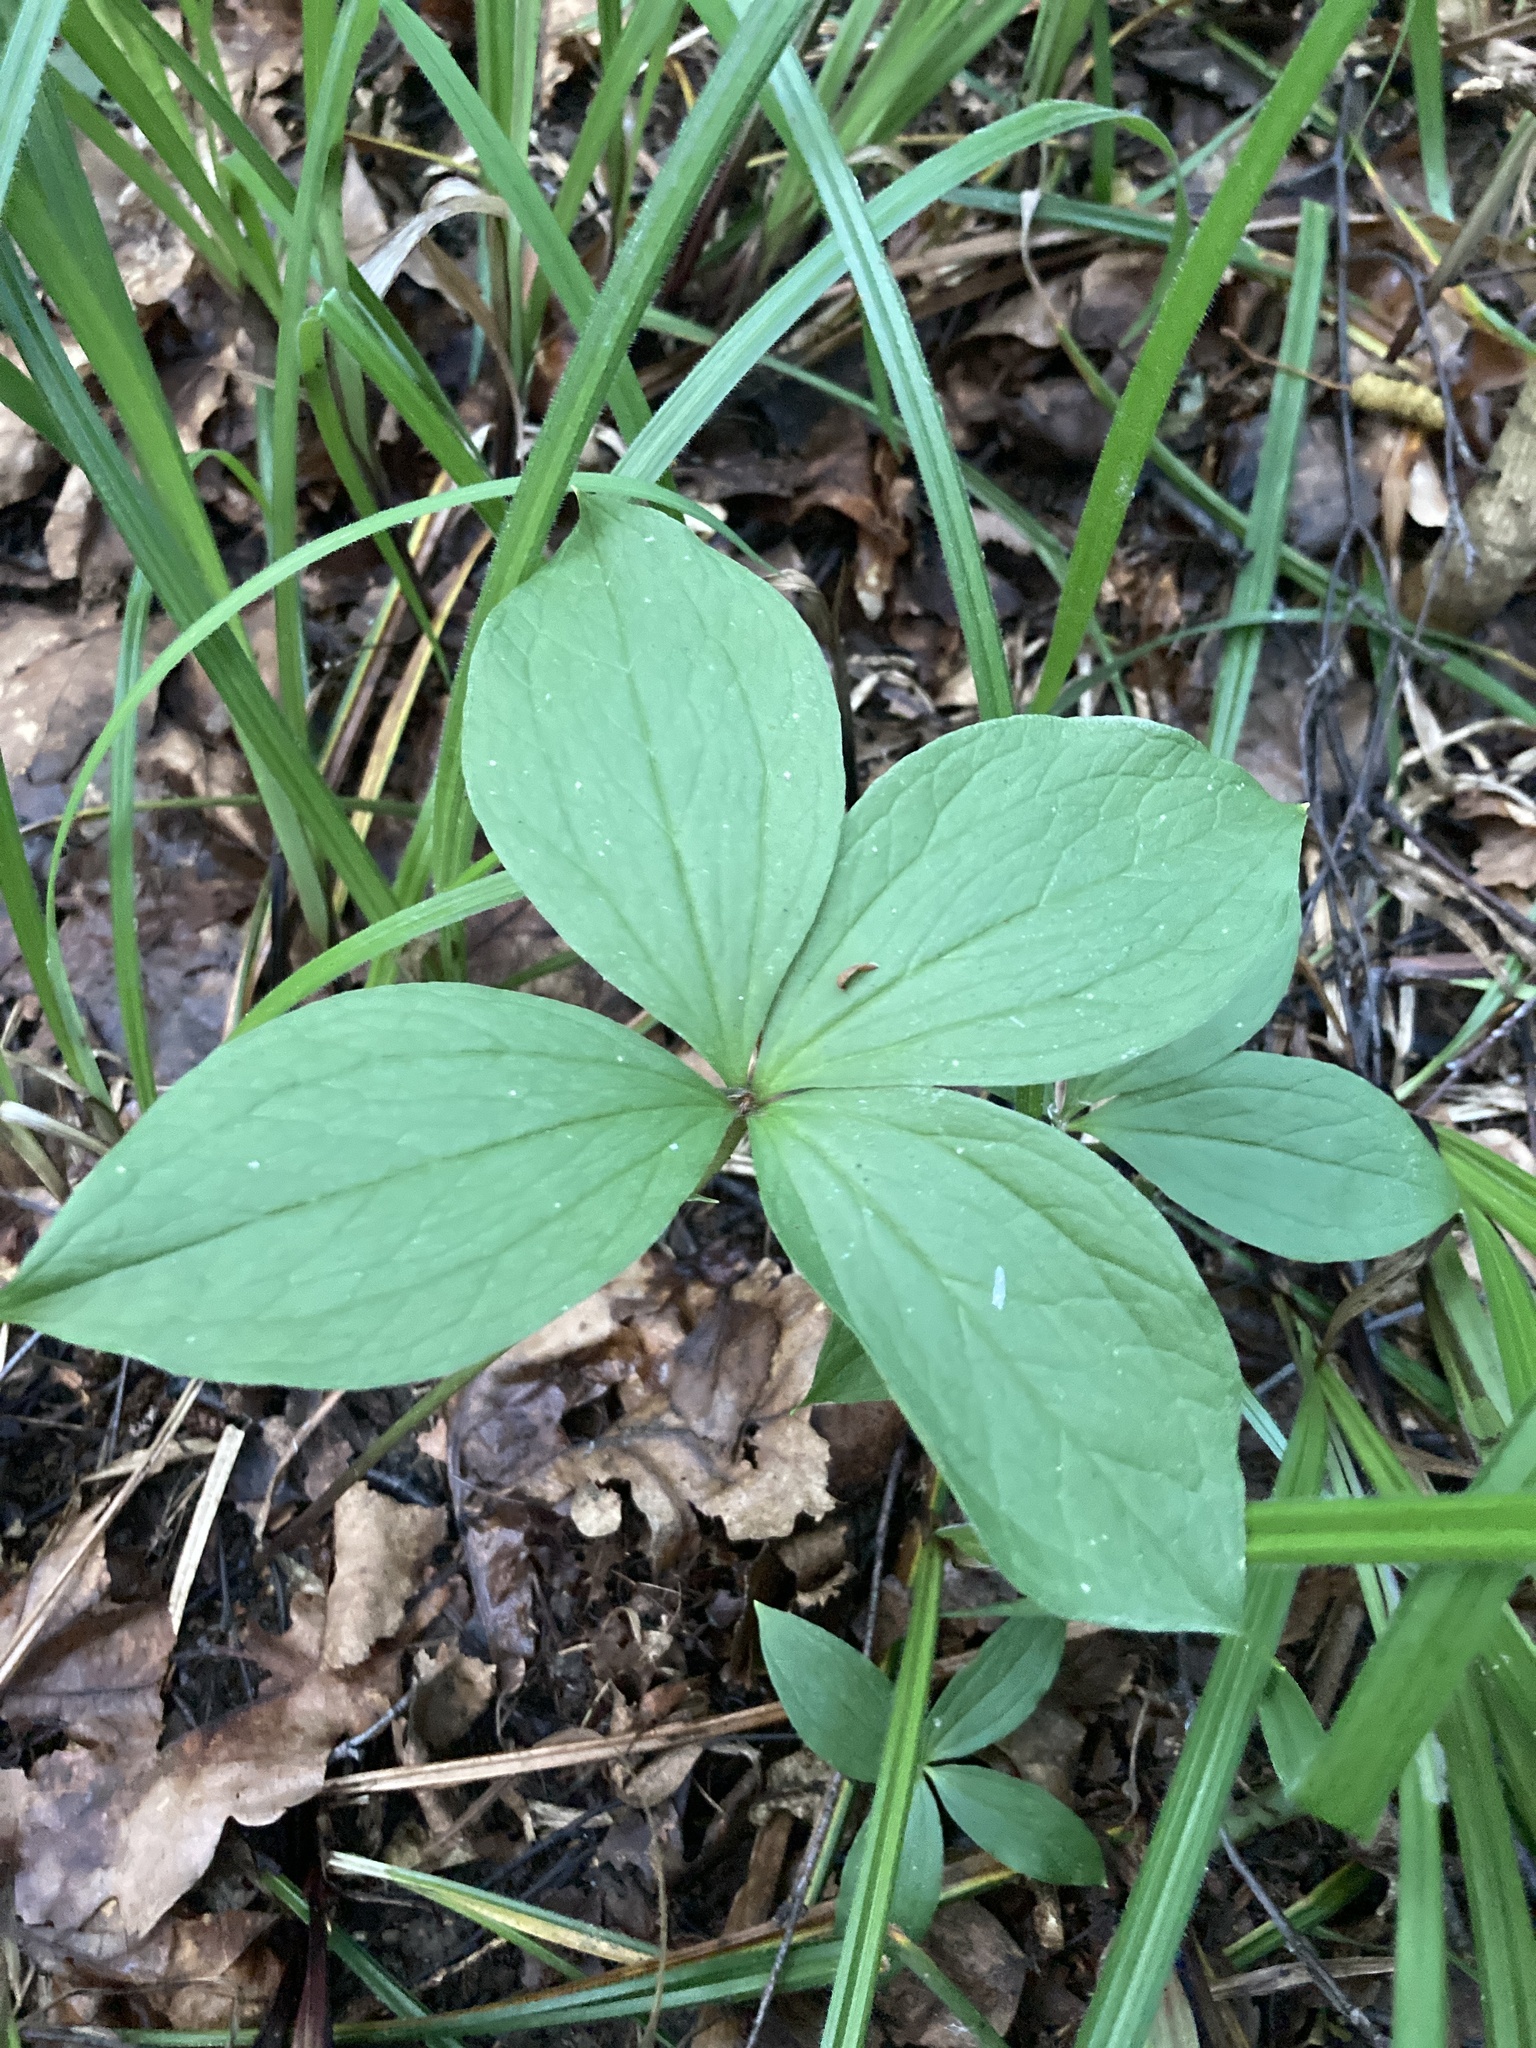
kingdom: Plantae
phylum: Tracheophyta
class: Liliopsida
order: Liliales
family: Melanthiaceae
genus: Paris
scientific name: Paris quadrifolia
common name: Herb-paris
